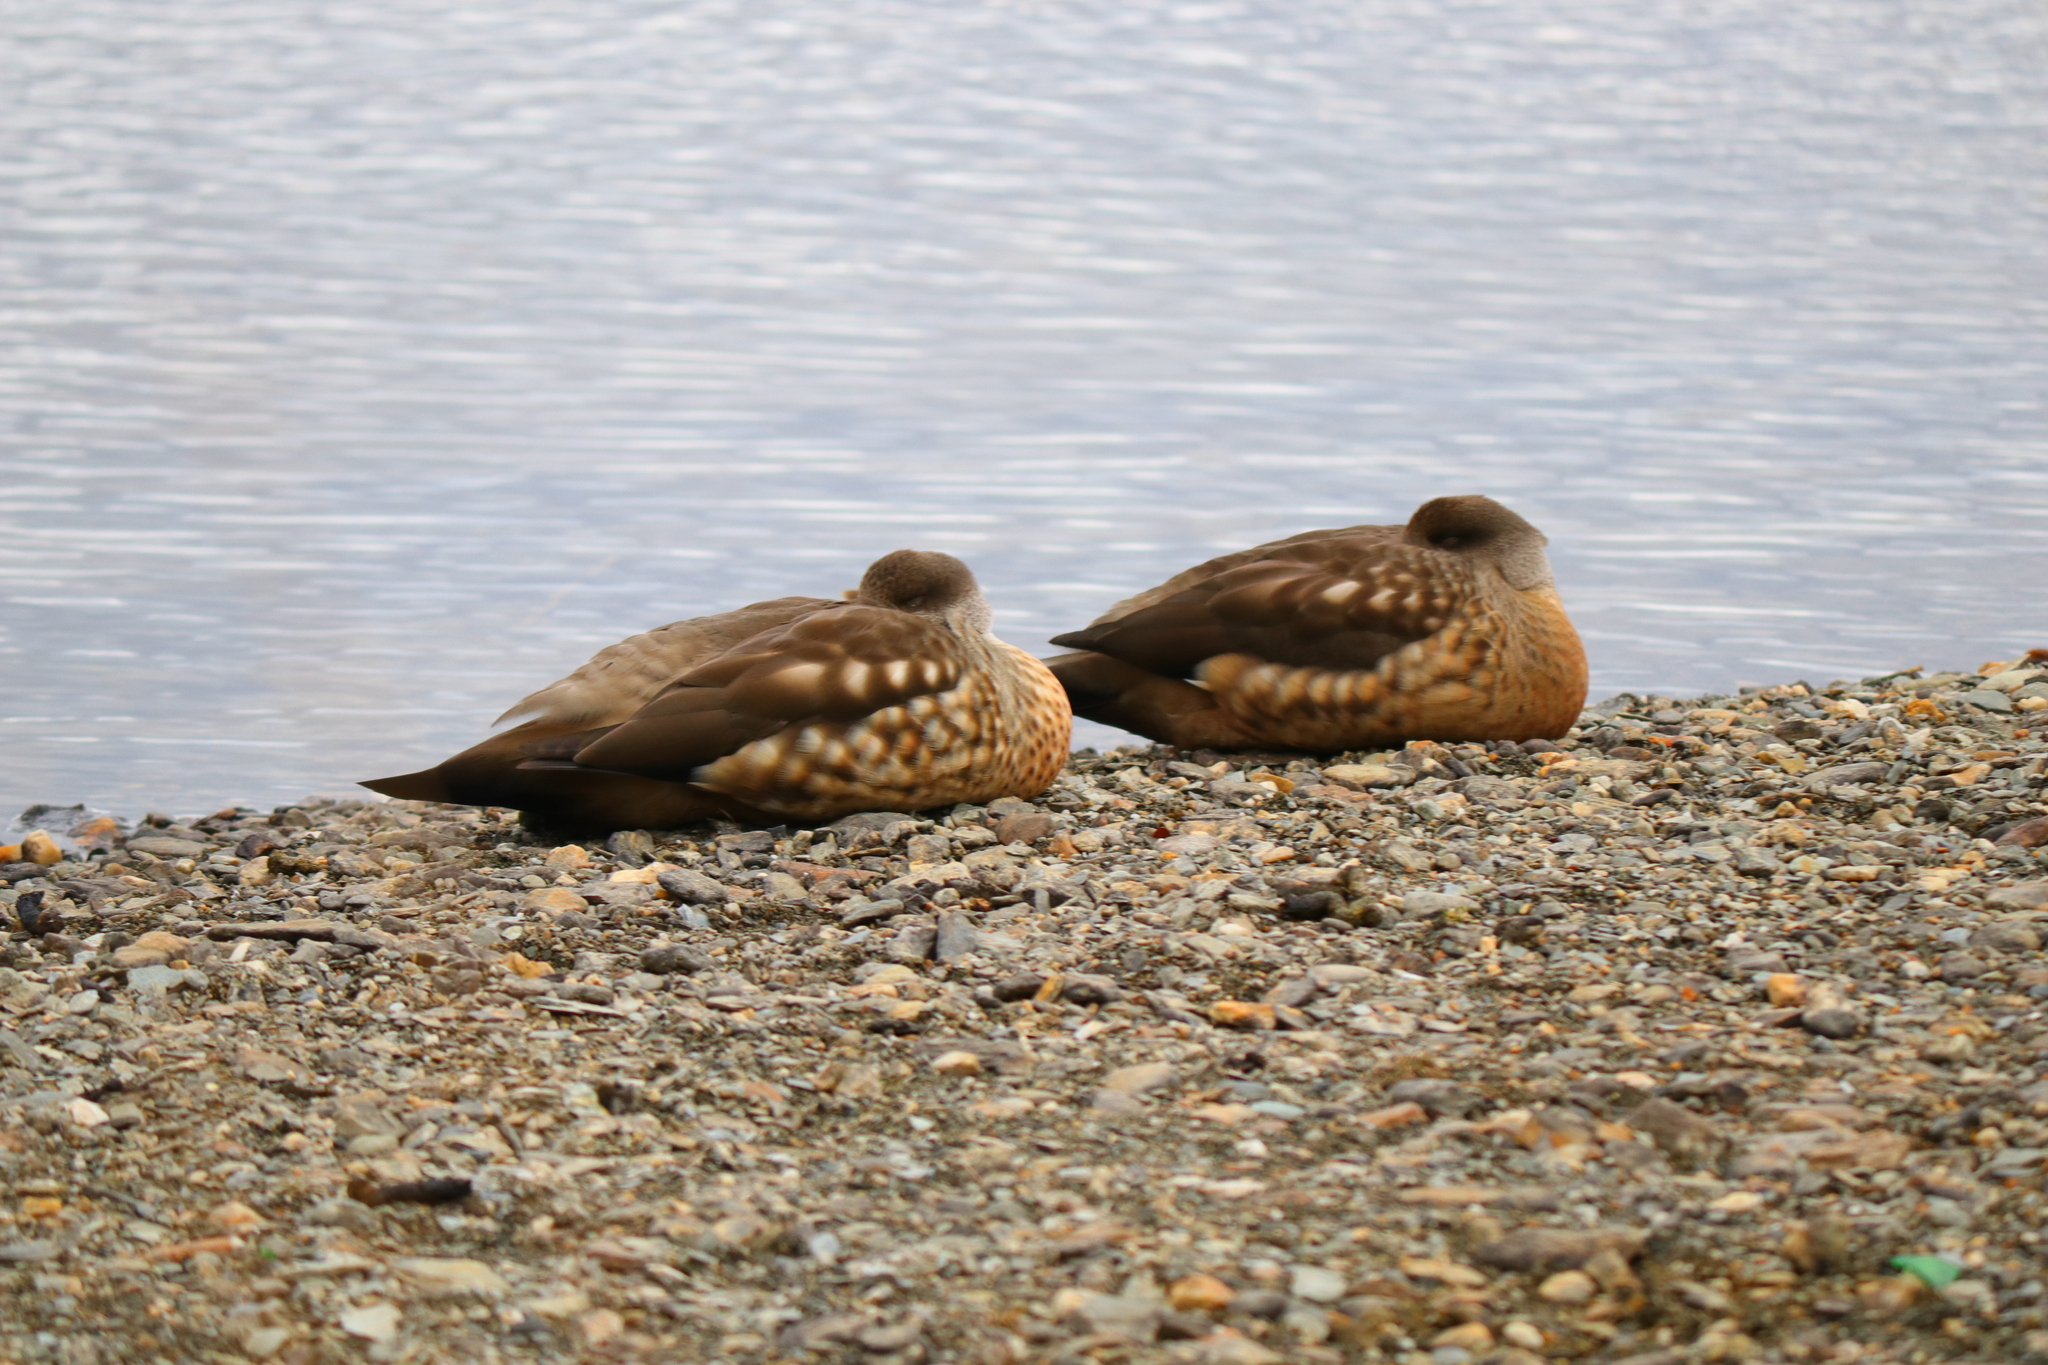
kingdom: Animalia
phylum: Chordata
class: Aves
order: Anseriformes
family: Anatidae
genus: Lophonetta
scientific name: Lophonetta specularioides
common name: Crested duck
